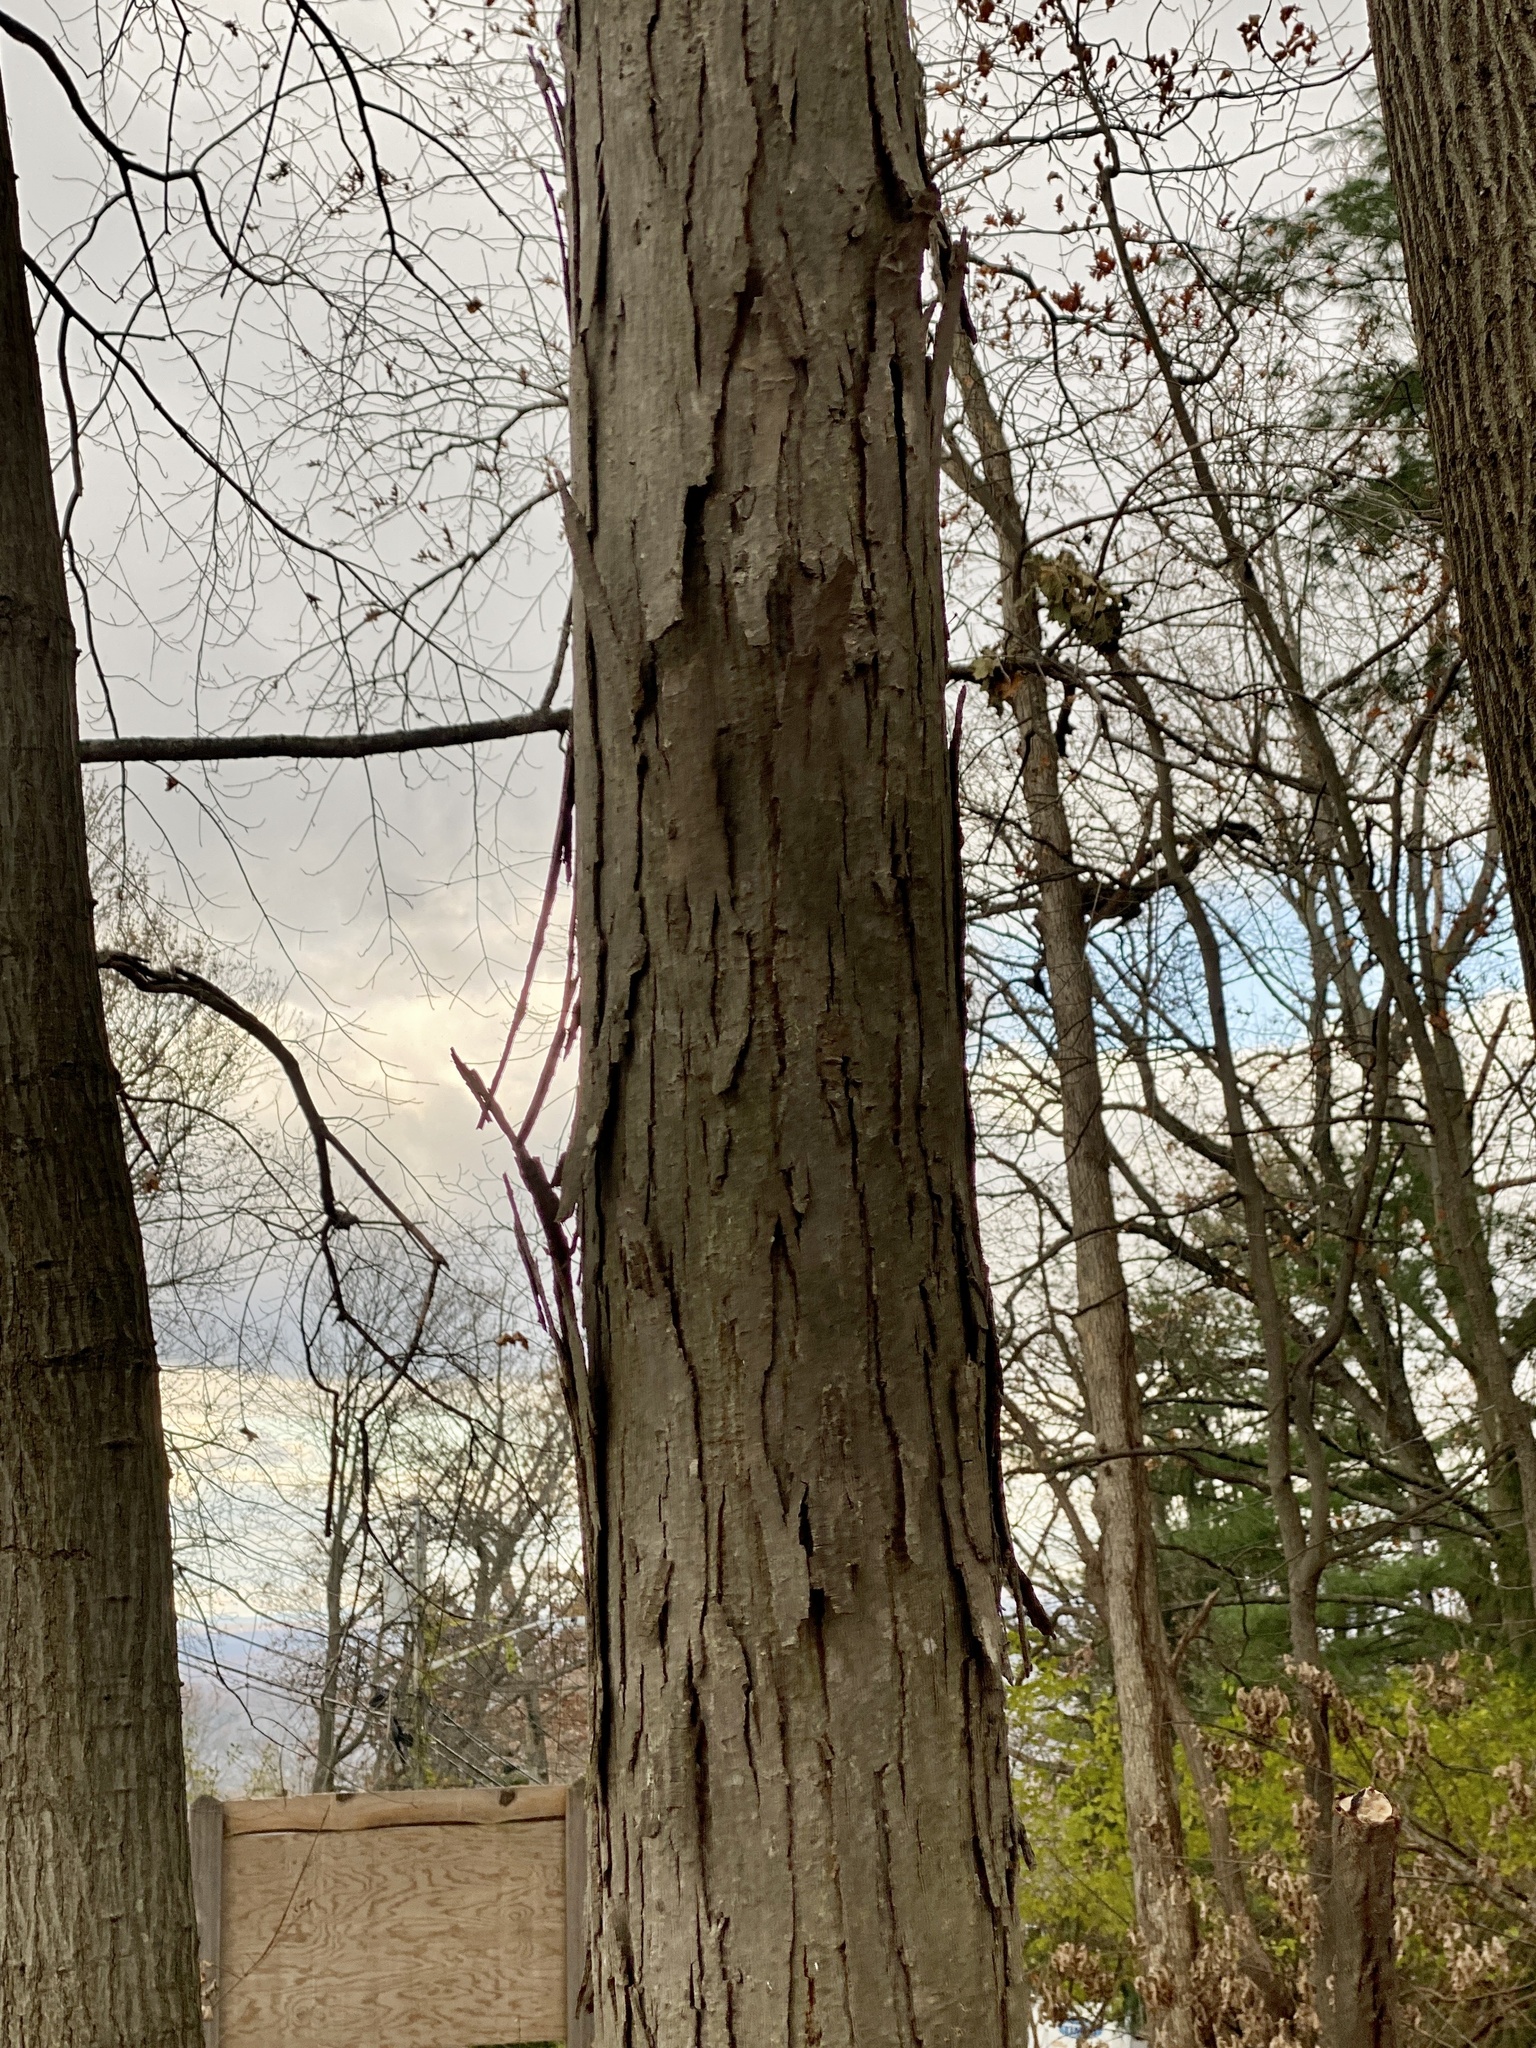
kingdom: Plantae
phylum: Tracheophyta
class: Magnoliopsida
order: Fagales
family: Juglandaceae
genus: Carya
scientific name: Carya ovata
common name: Shagbark hickory
